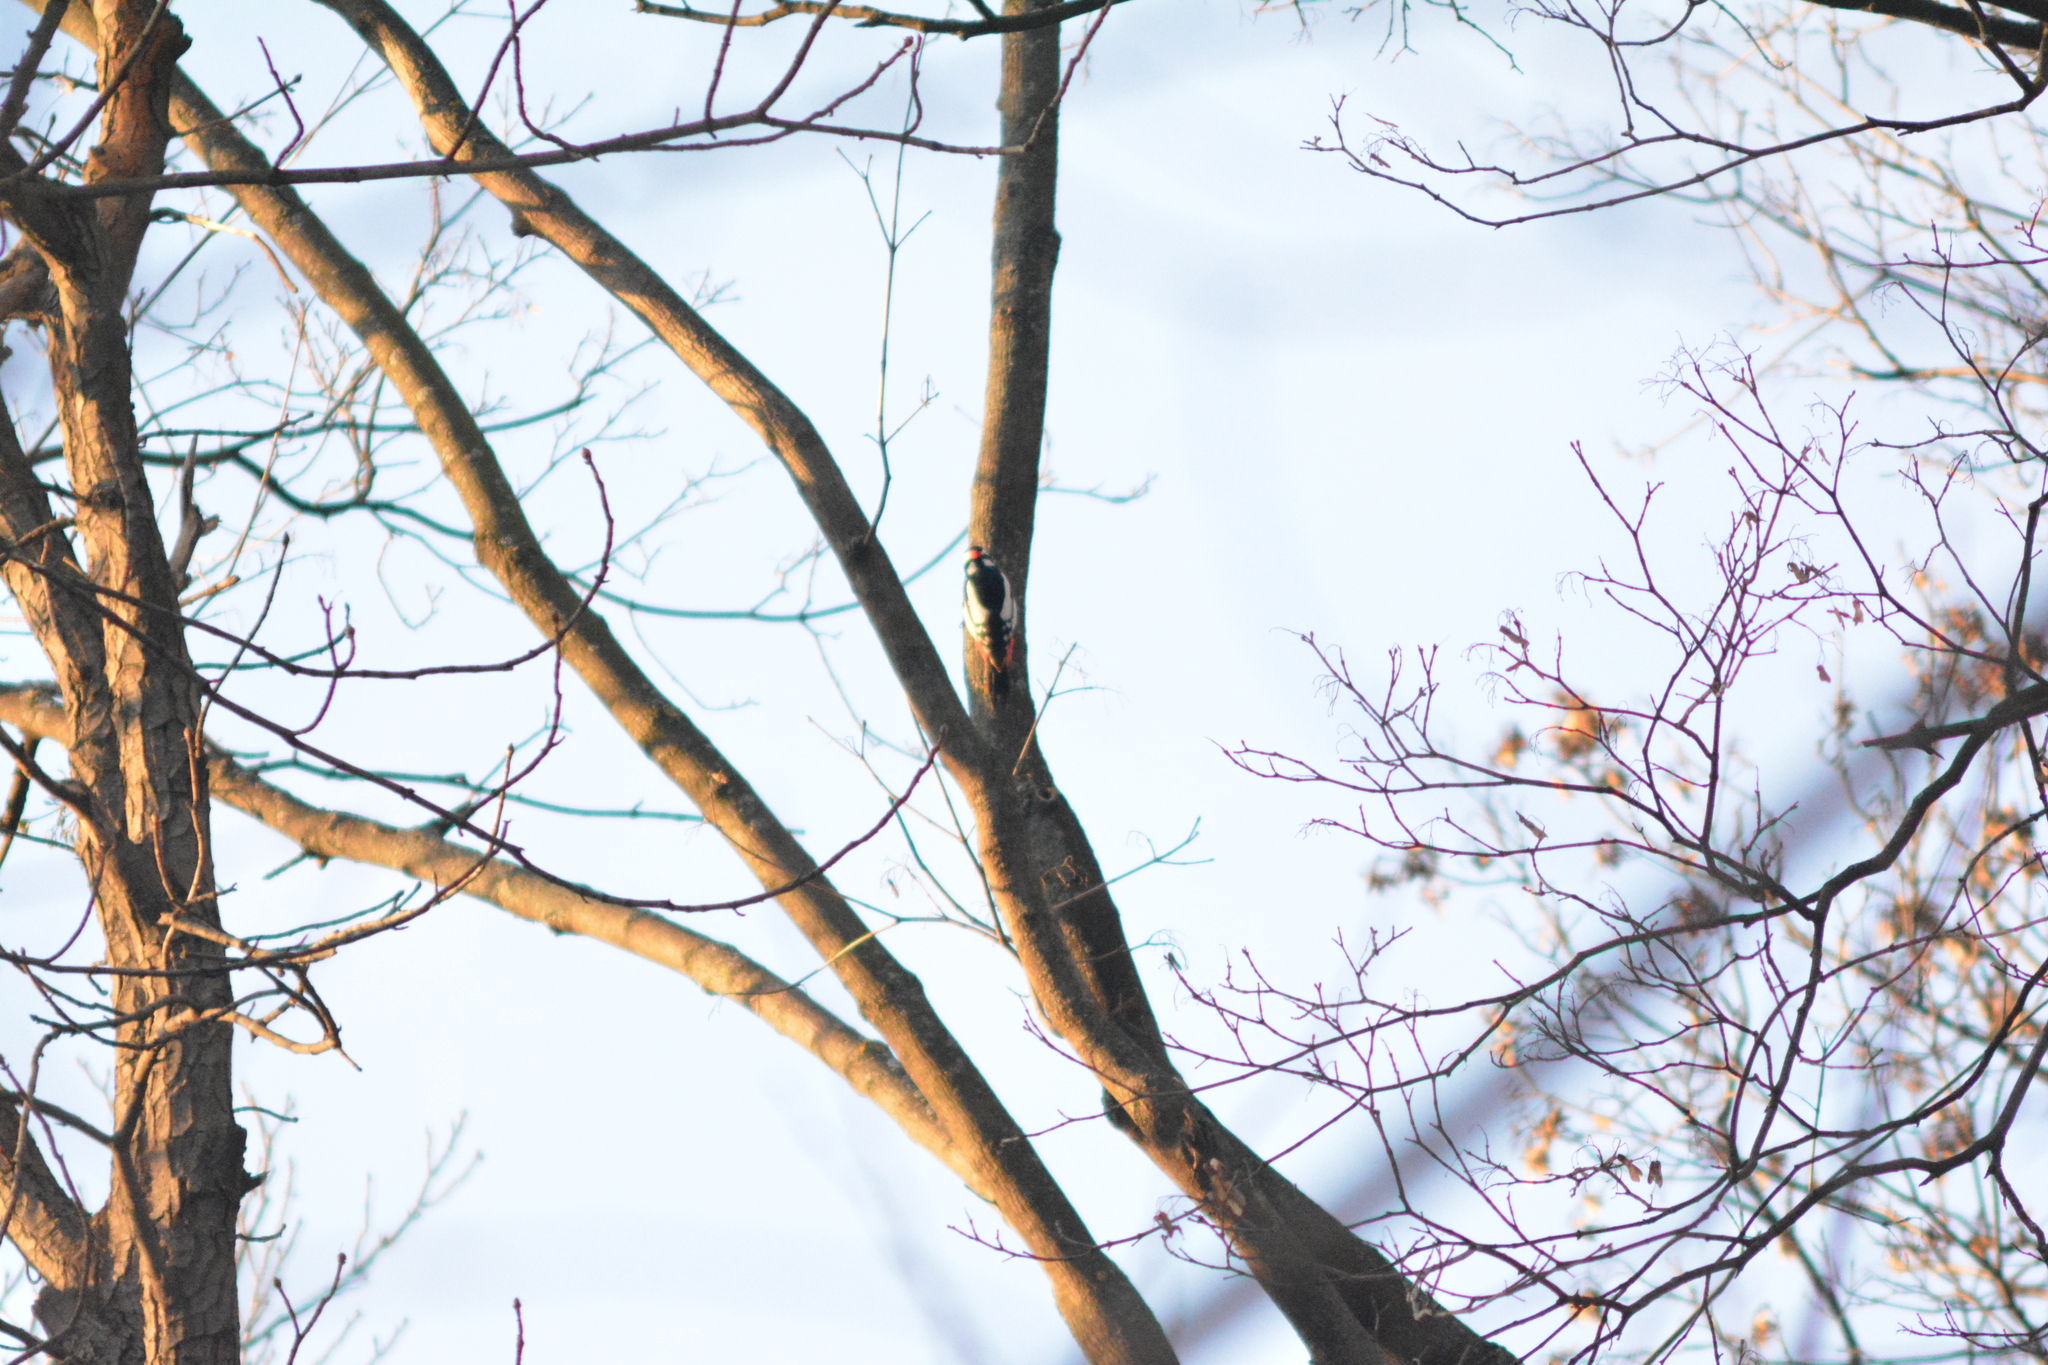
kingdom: Animalia
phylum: Chordata
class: Aves
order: Piciformes
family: Picidae
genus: Dendrocopos
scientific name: Dendrocopos major
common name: Great spotted woodpecker
